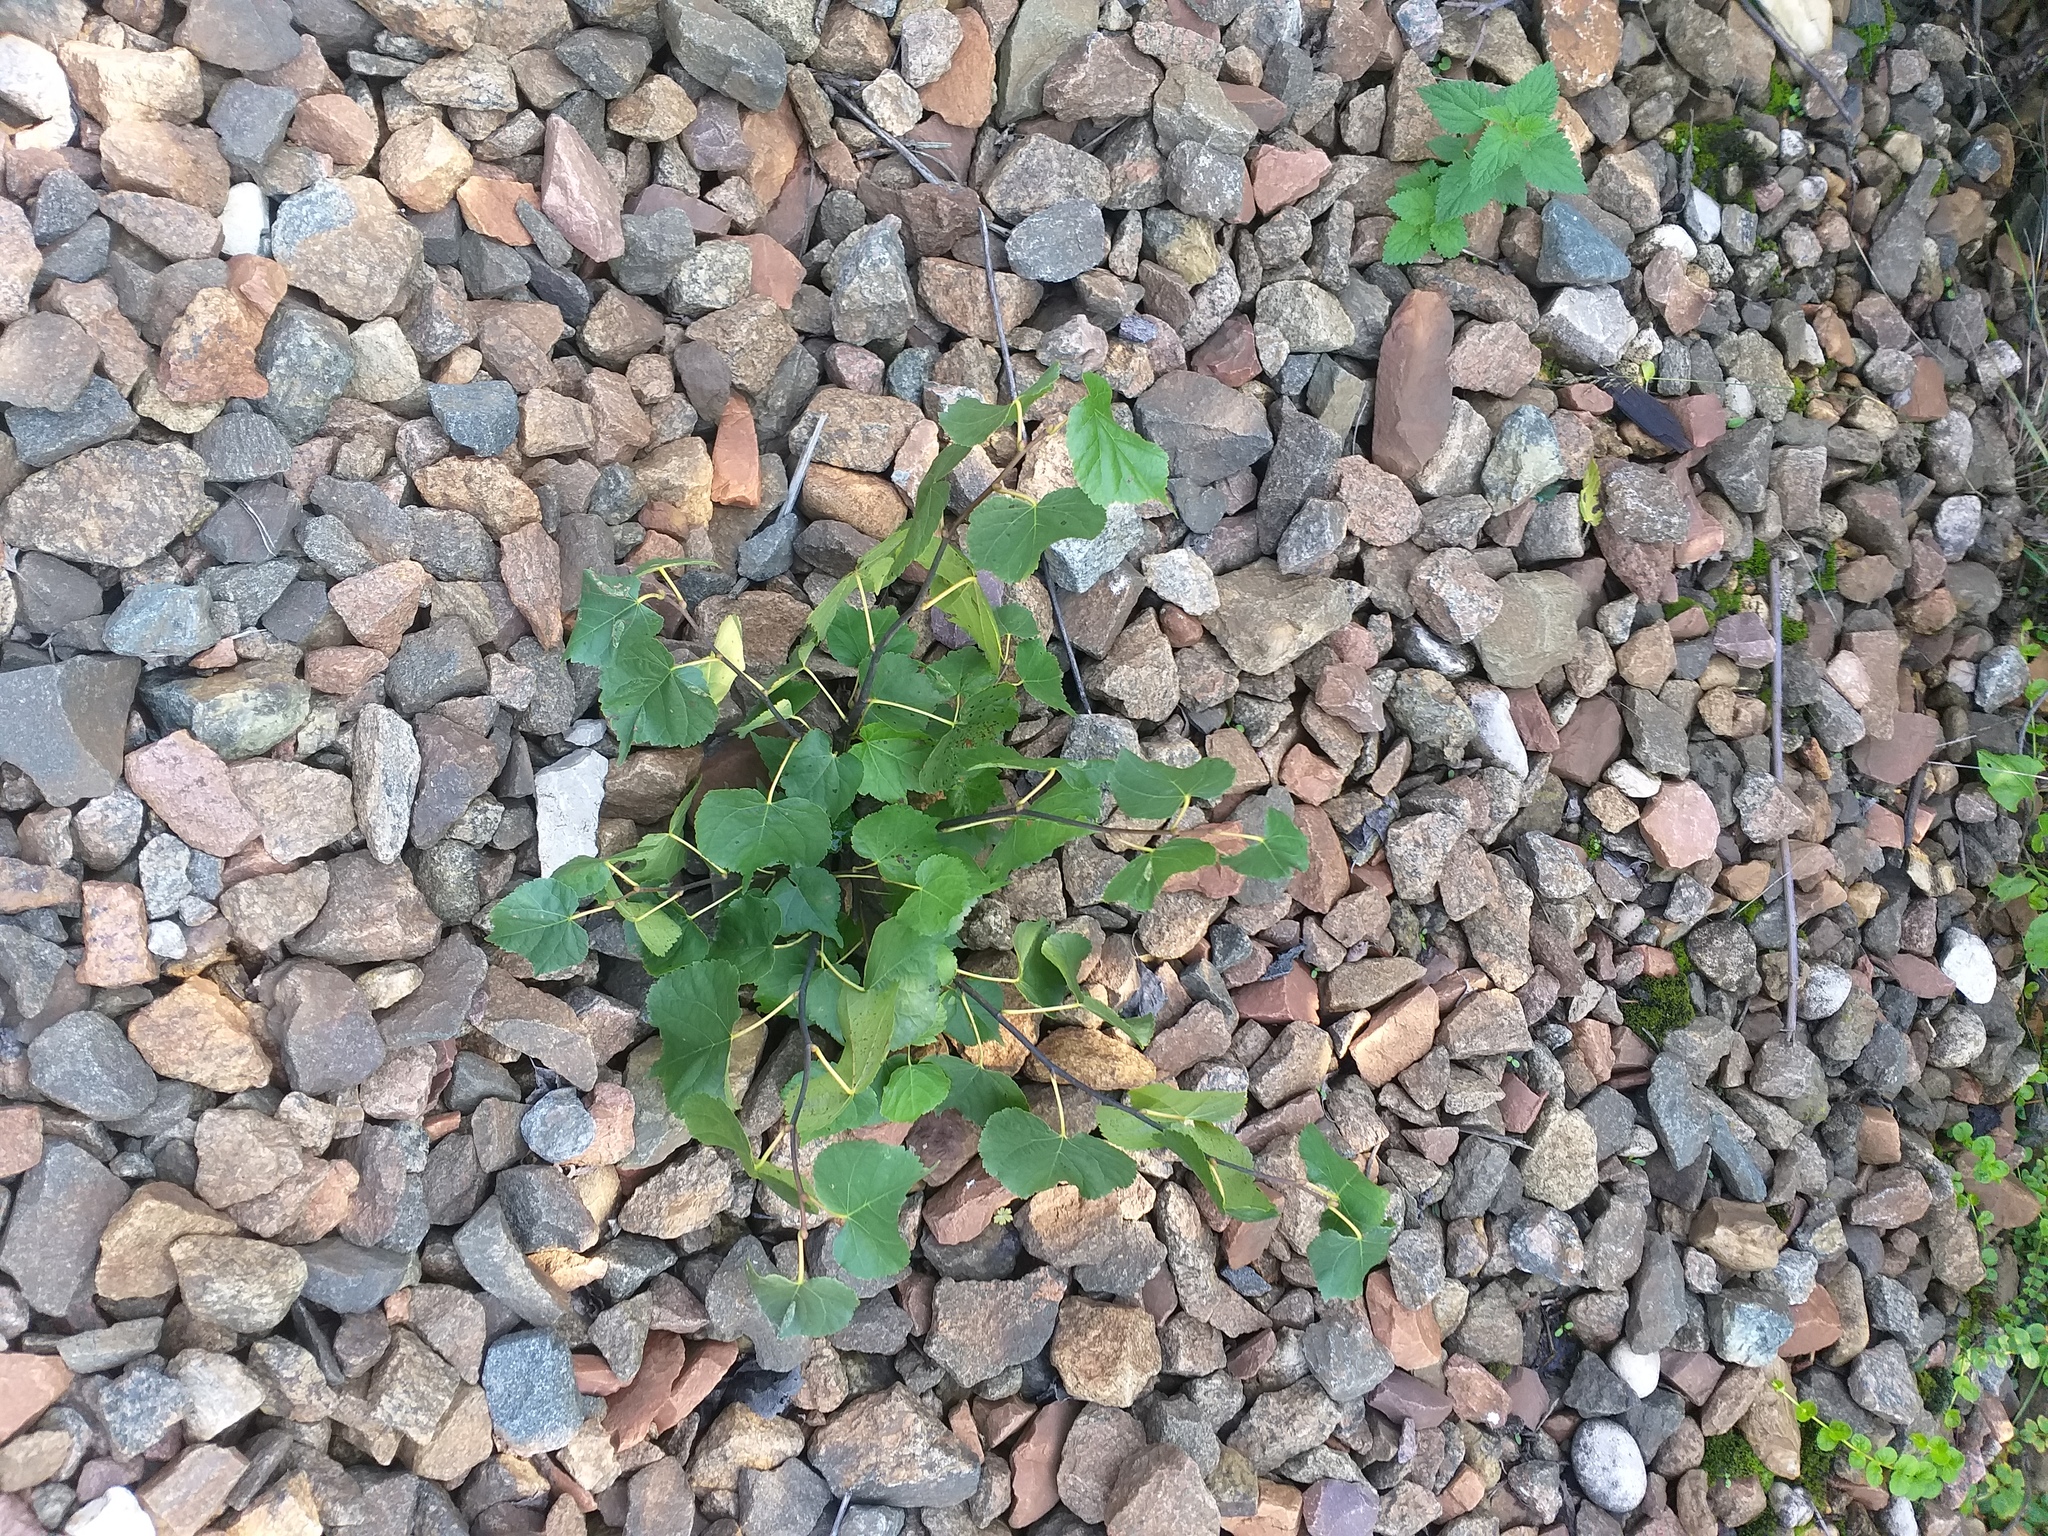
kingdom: Plantae
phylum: Tracheophyta
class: Magnoliopsida
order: Malvales
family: Malvaceae
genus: Tilia
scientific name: Tilia cordata
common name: Small-leaved lime
